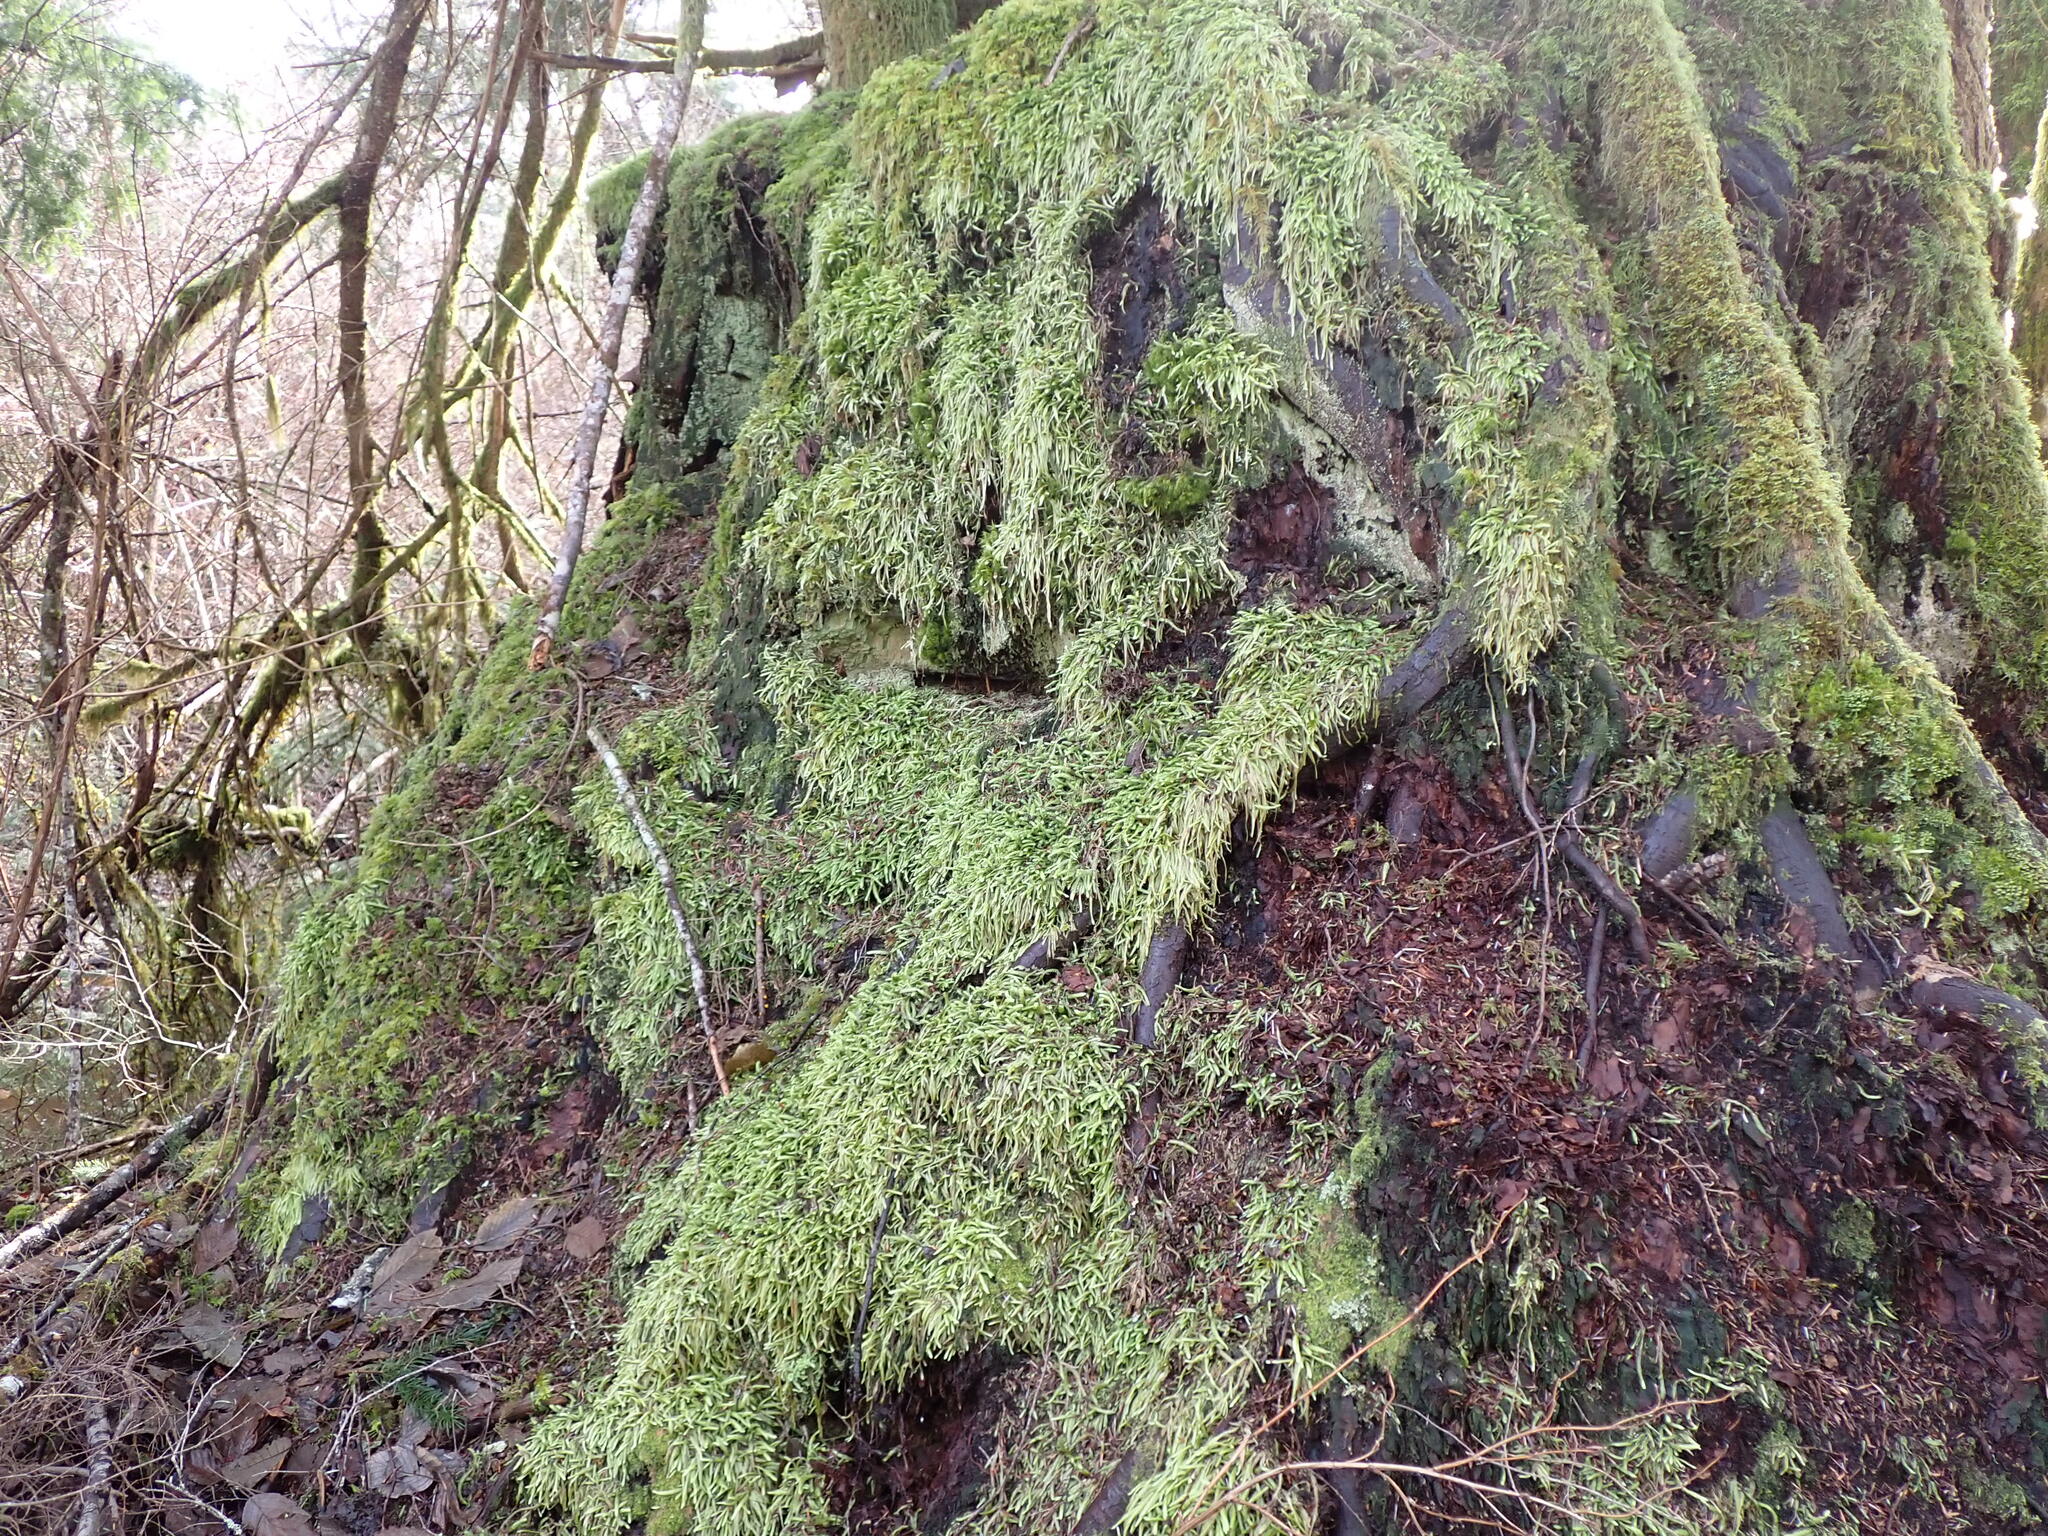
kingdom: Plantae
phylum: Bryophyta
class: Bryopsida
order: Hypnales
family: Plagiotheciaceae
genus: Plagiothecium
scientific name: Plagiothecium undulatum
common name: Waved silk-moss
